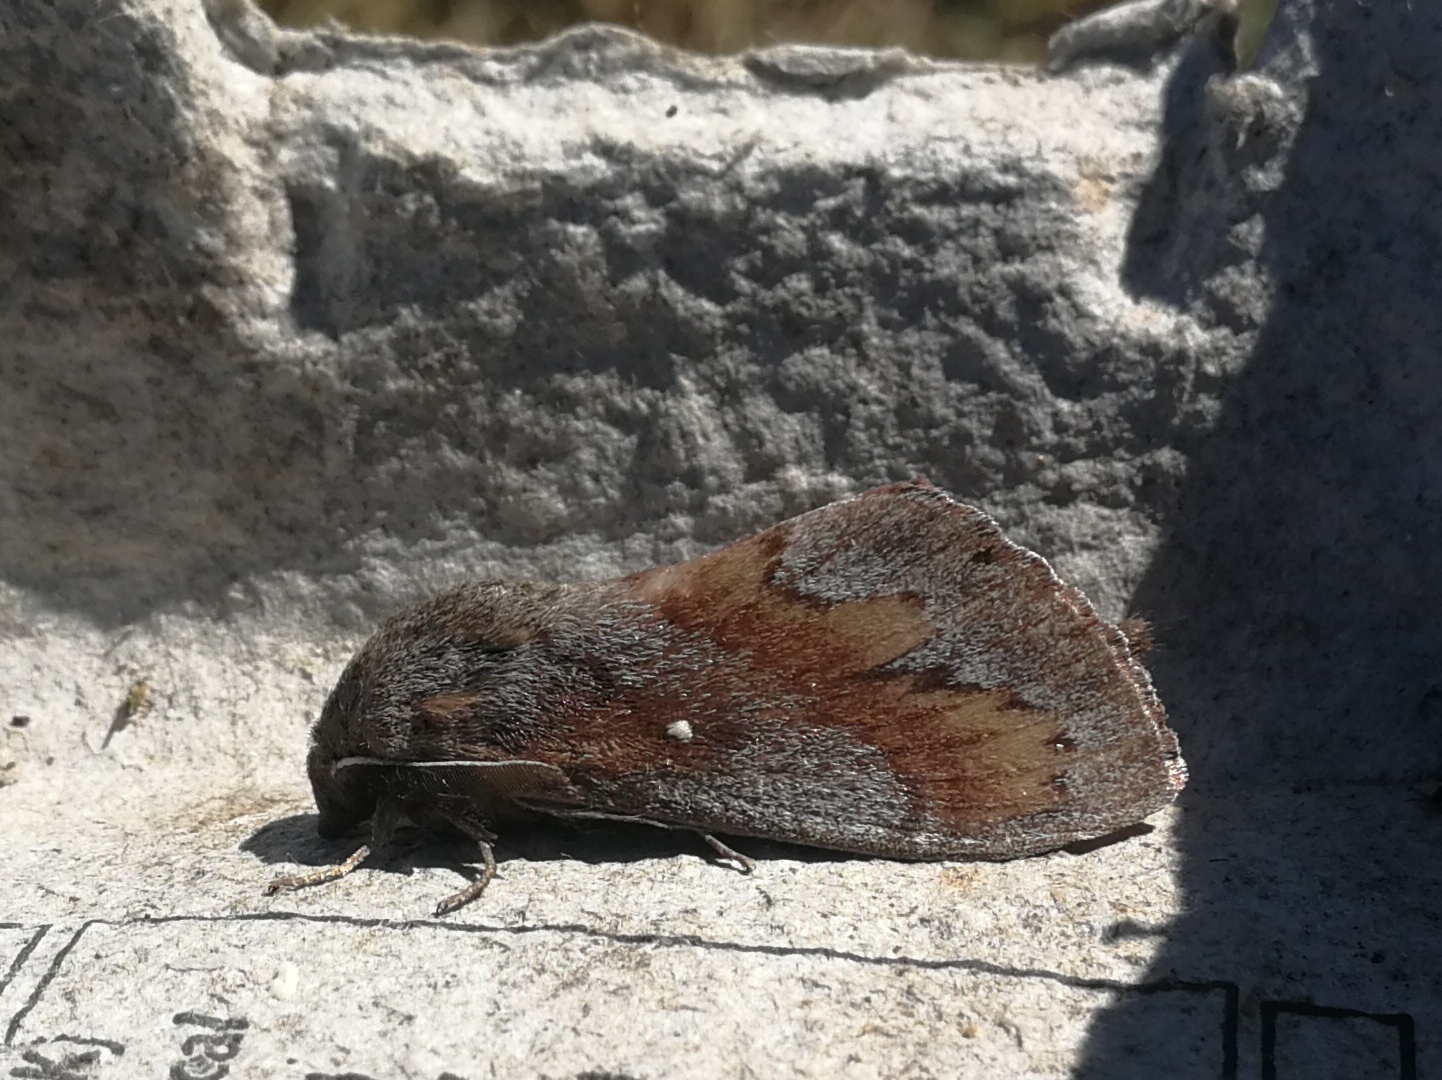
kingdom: Animalia
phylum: Arthropoda
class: Insecta
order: Lepidoptera
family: Lasiocampidae
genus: Dendrolimus
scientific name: Dendrolimus pini
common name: Pine-tree lappet
